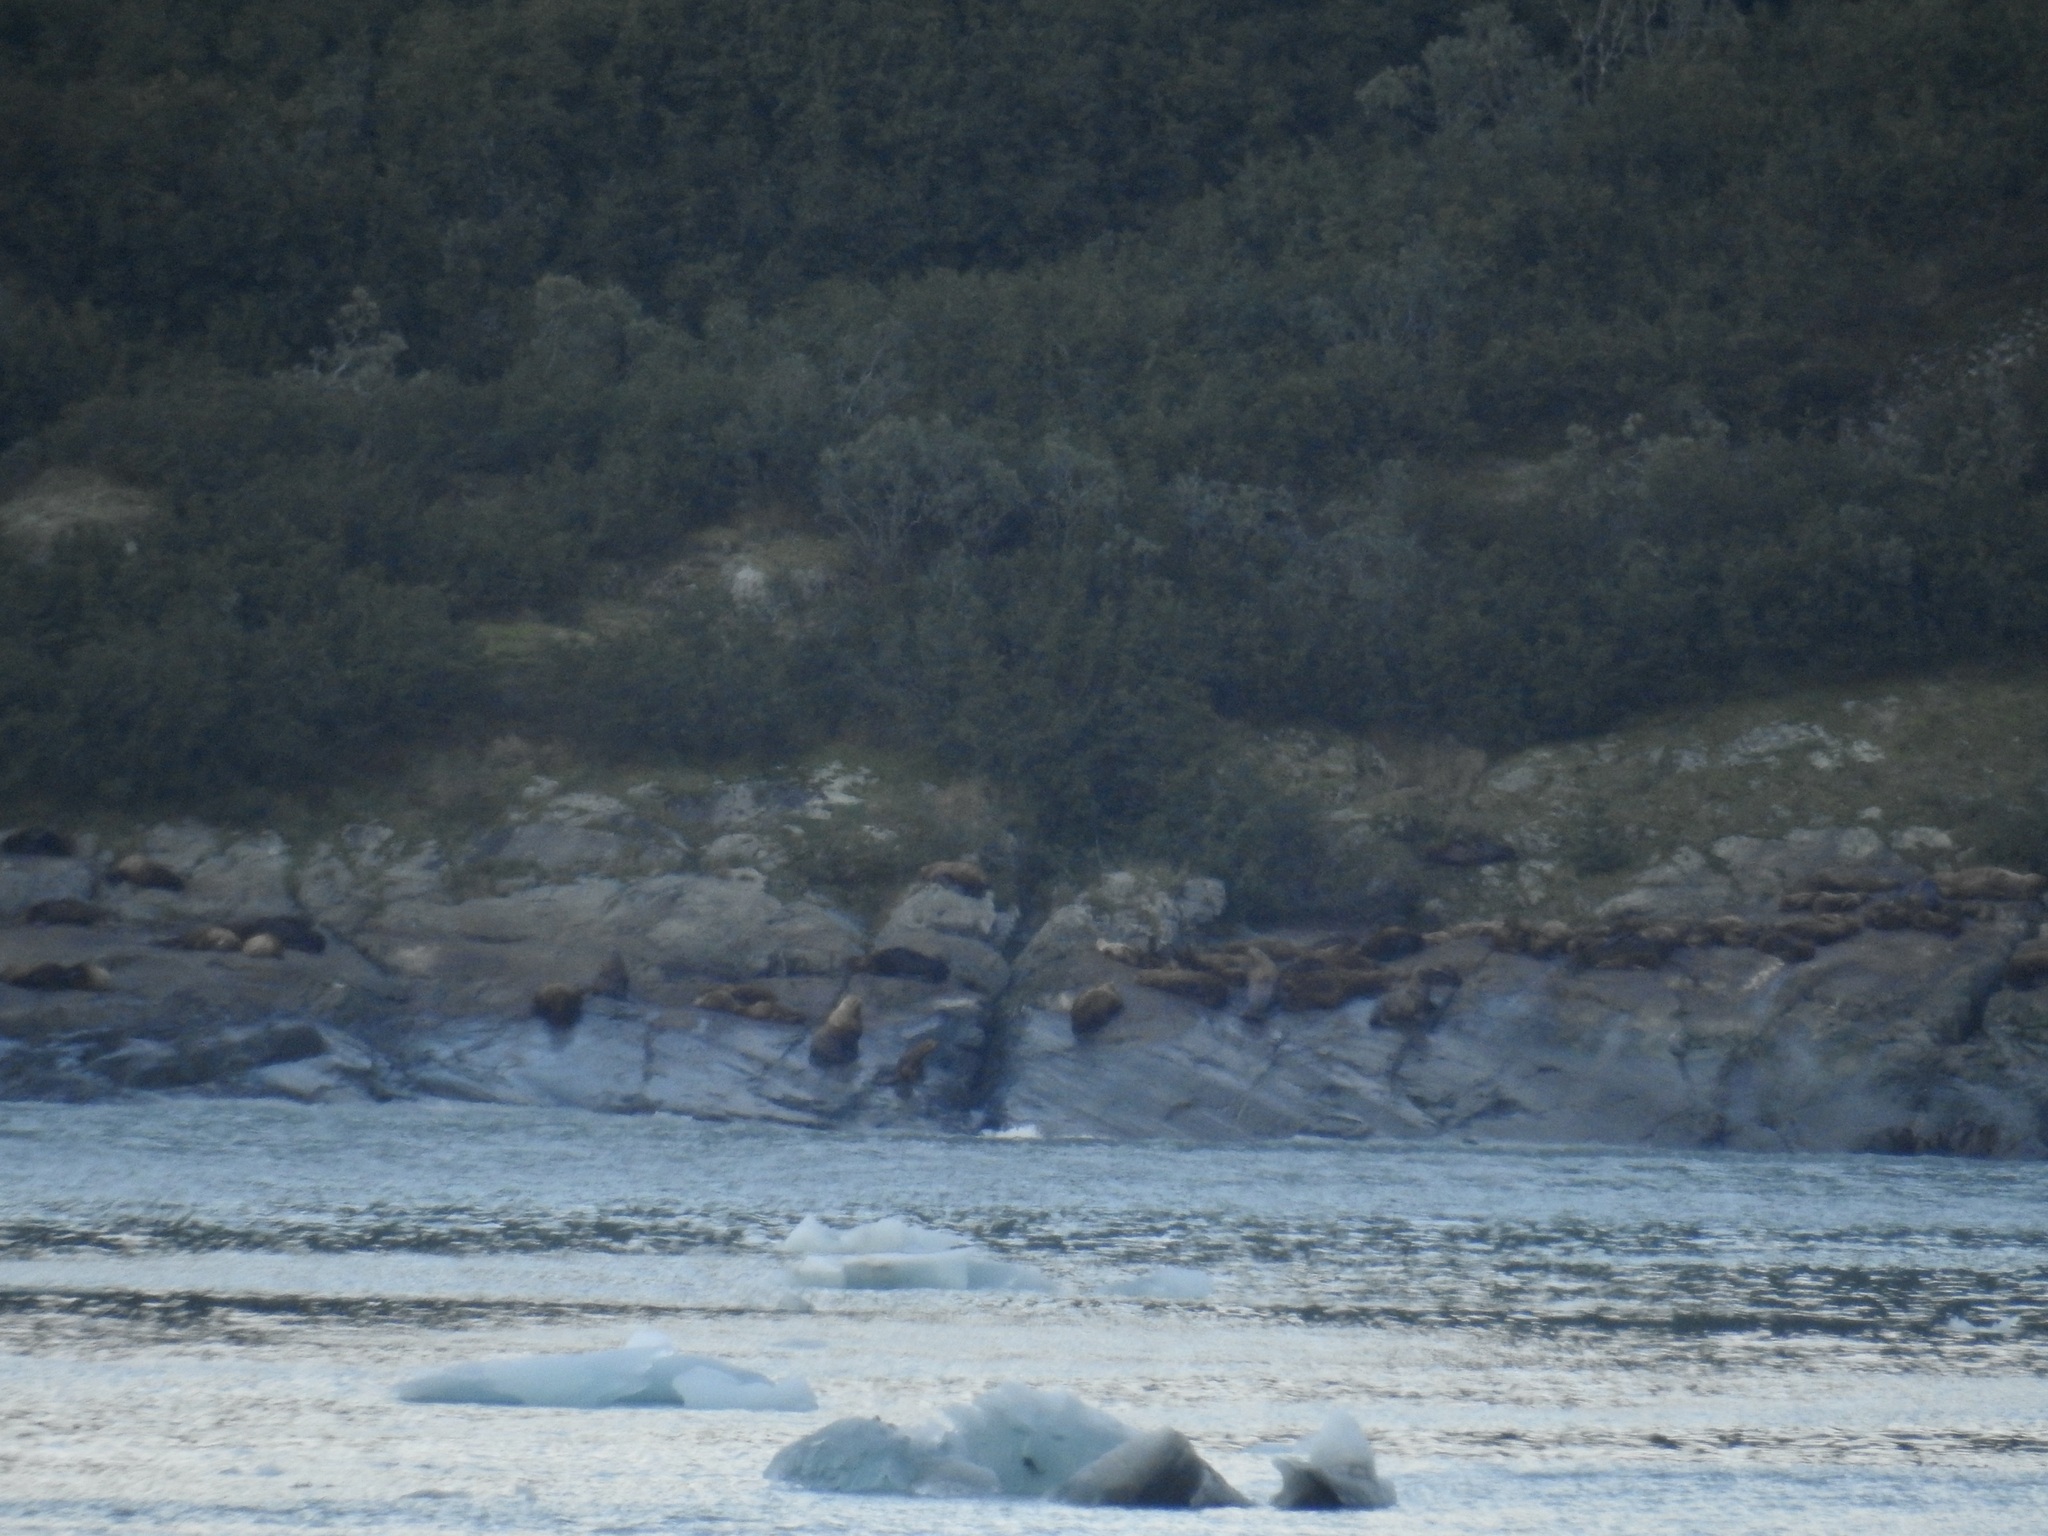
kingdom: Animalia
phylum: Chordata
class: Mammalia
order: Carnivora
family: Otariidae
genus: Eumetopias
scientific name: Eumetopias jubatus
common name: Steller sea lion
